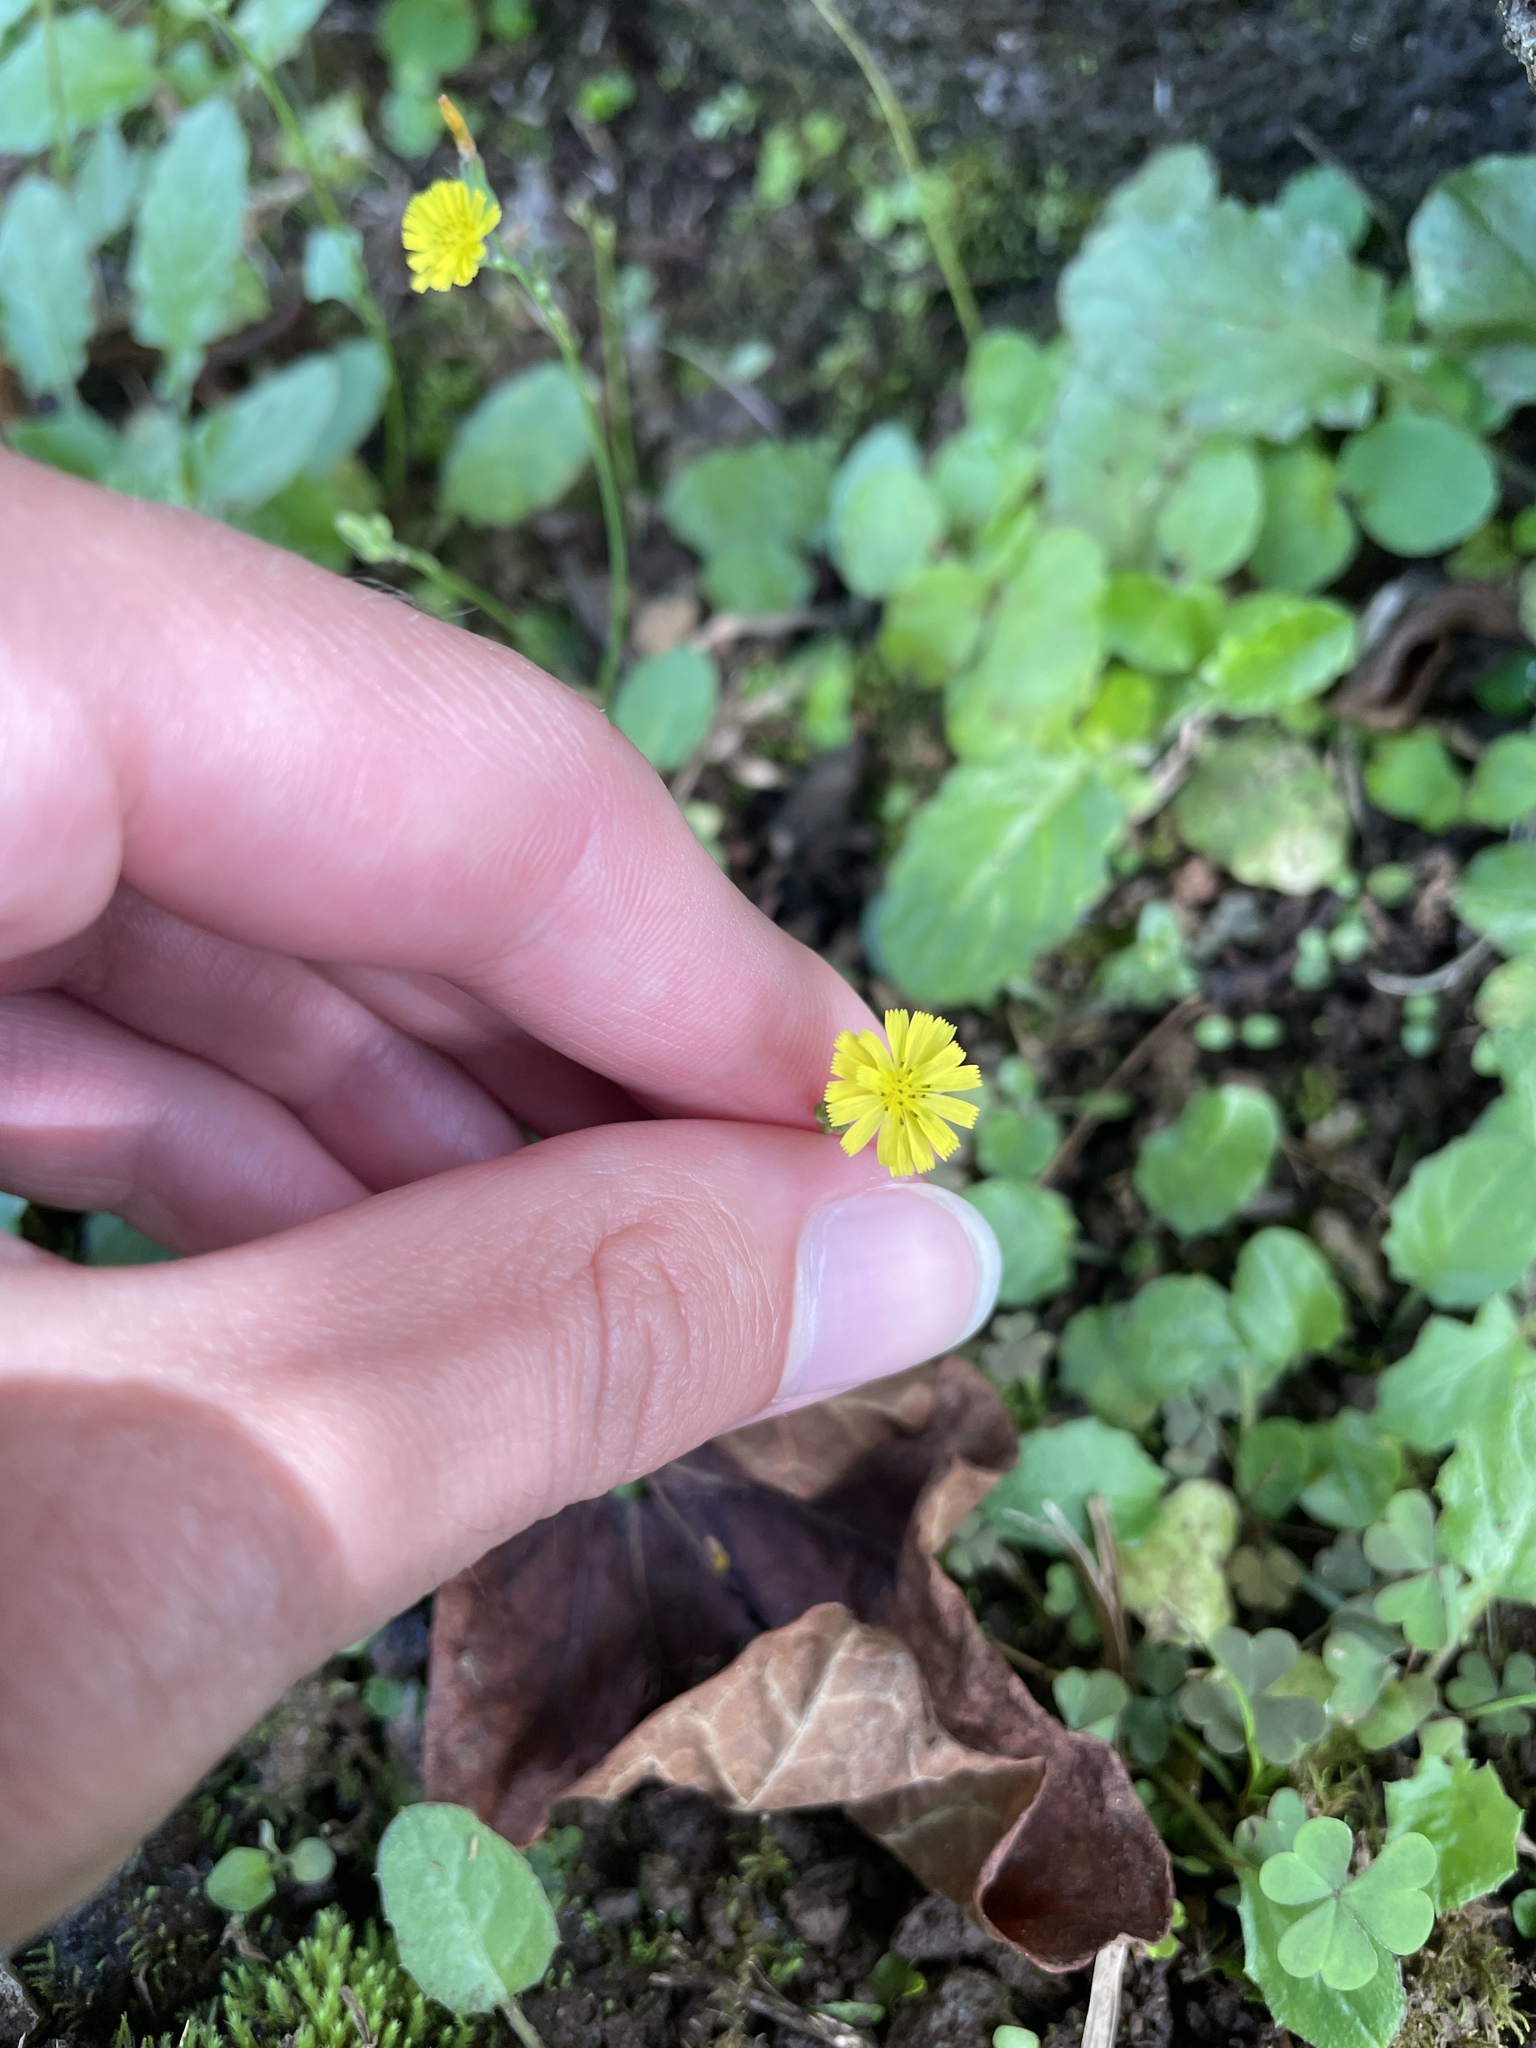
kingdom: Plantae
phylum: Tracheophyta
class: Magnoliopsida
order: Asterales
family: Asteraceae
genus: Youngia
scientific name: Youngia japonica
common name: Oriental false hawksbeard
